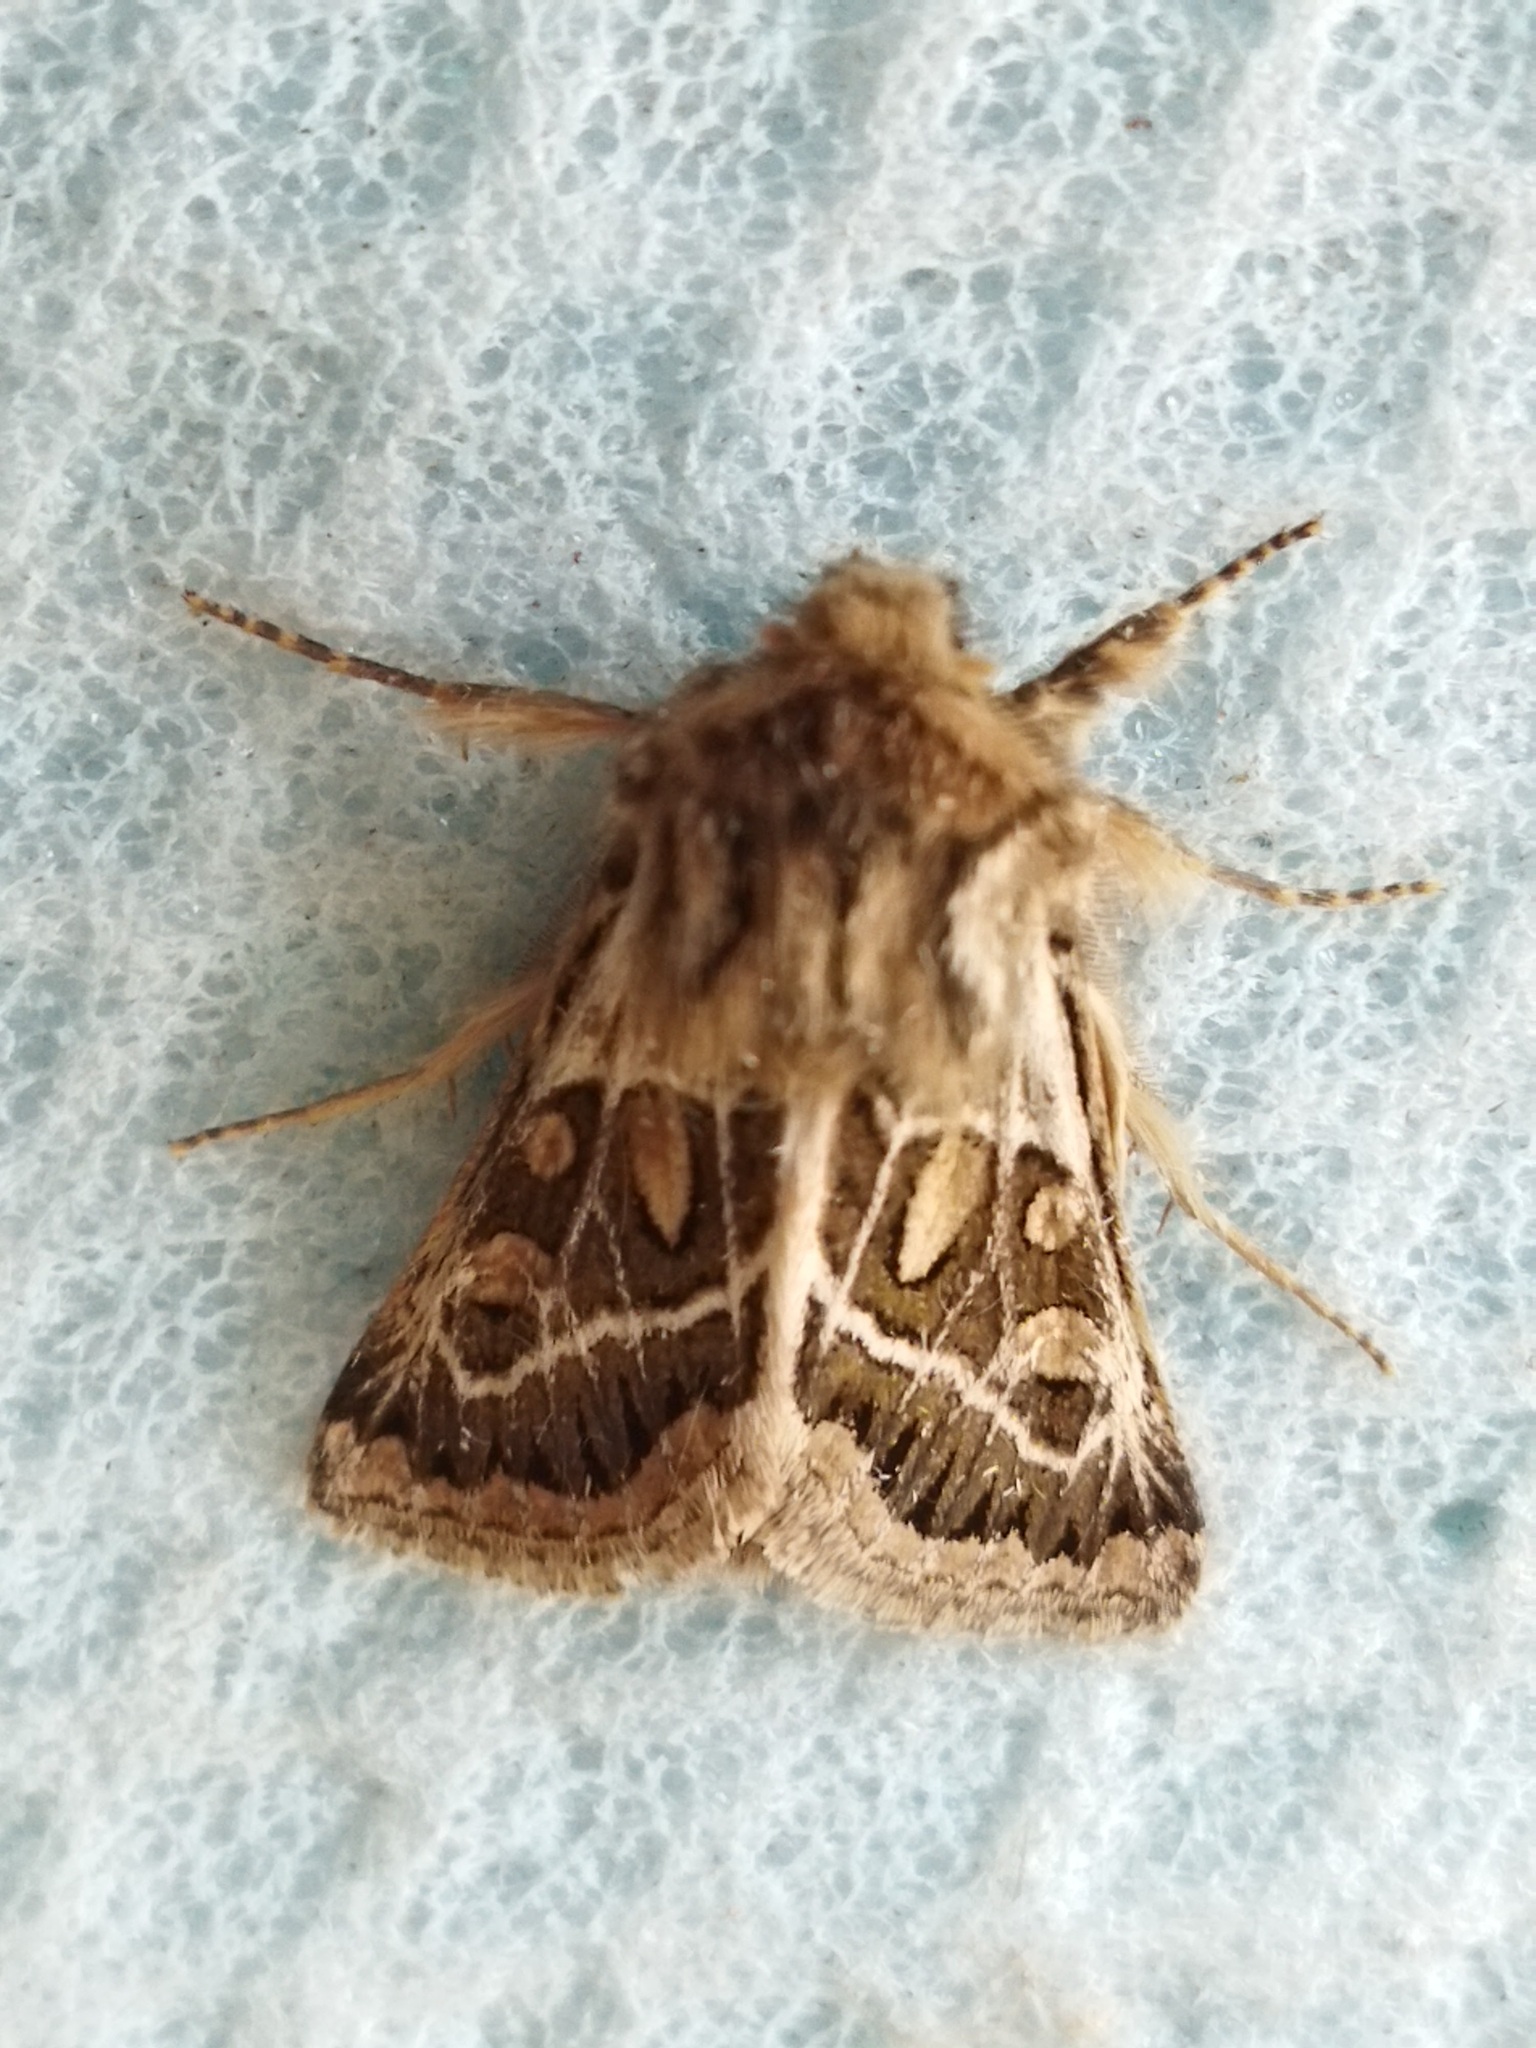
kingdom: Animalia
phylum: Arthropoda
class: Insecta
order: Lepidoptera
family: Noctuidae
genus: Ulochlaena
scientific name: Ulochlaena hirta
